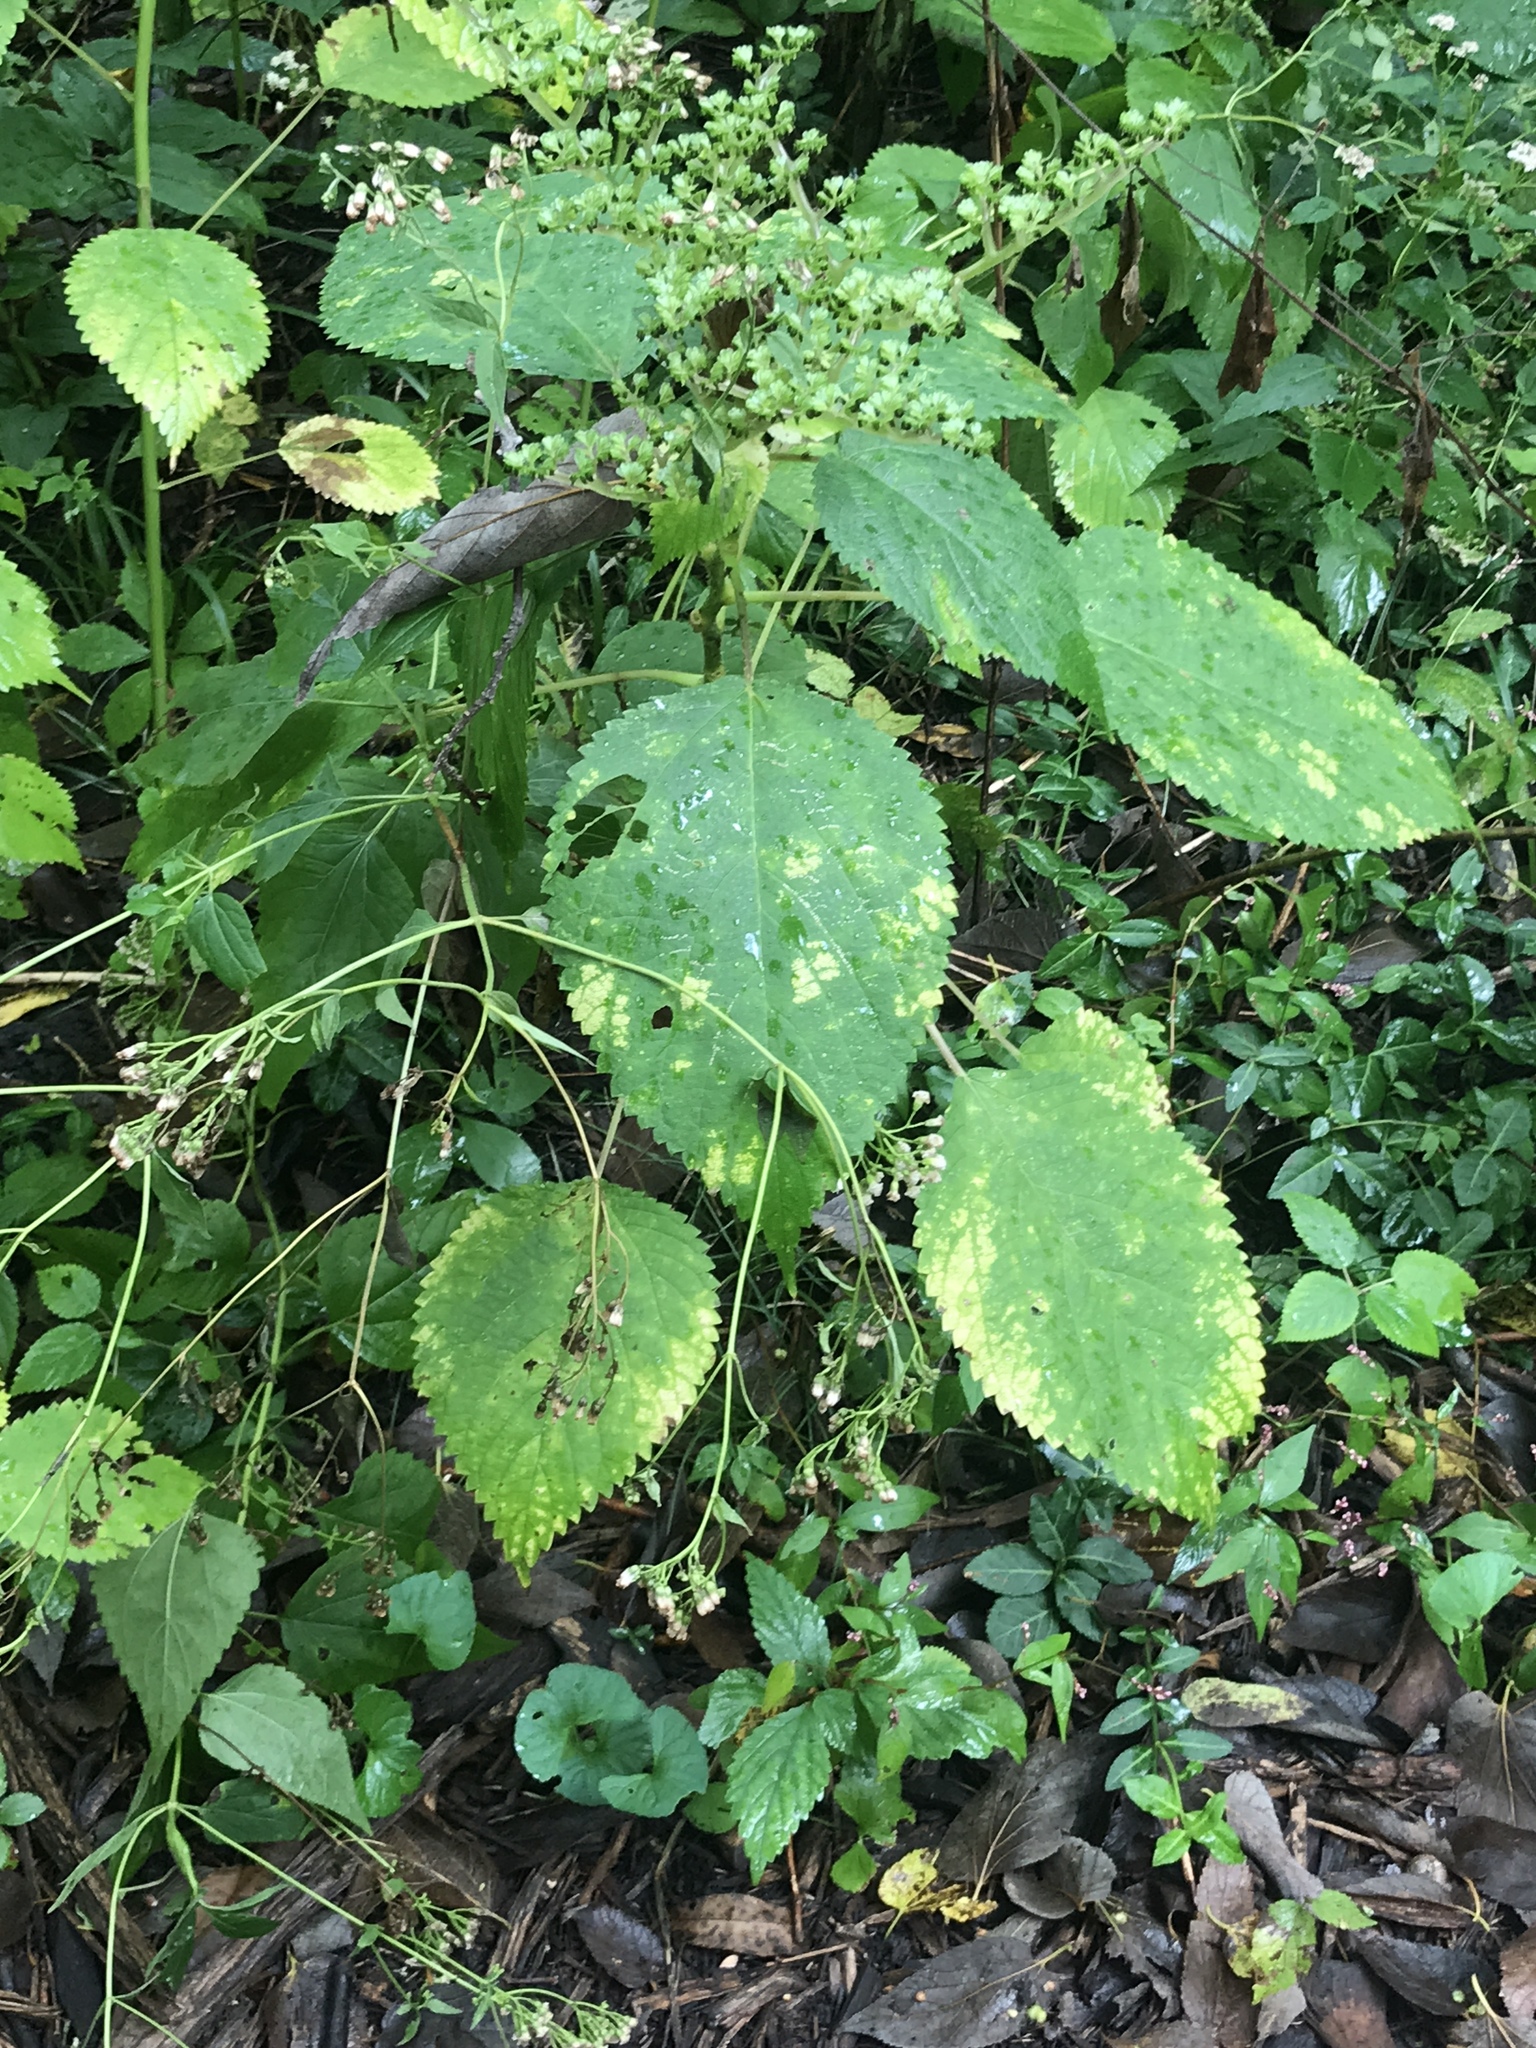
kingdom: Plantae
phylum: Tracheophyta
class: Magnoliopsida
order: Rosales
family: Urticaceae
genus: Laportea
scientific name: Laportea canadensis
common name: Canada nettle
